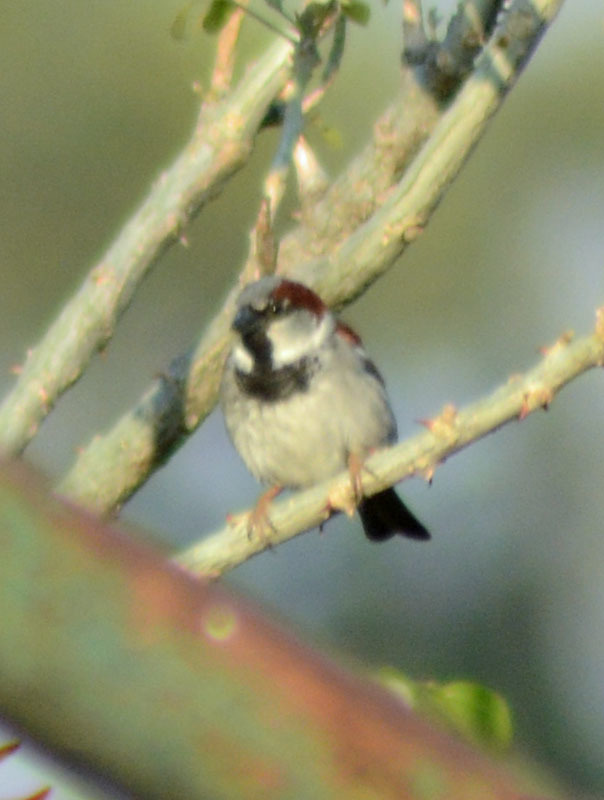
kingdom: Animalia
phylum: Chordata
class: Aves
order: Passeriformes
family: Passeridae
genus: Passer
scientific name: Passer domesticus
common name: House sparrow
